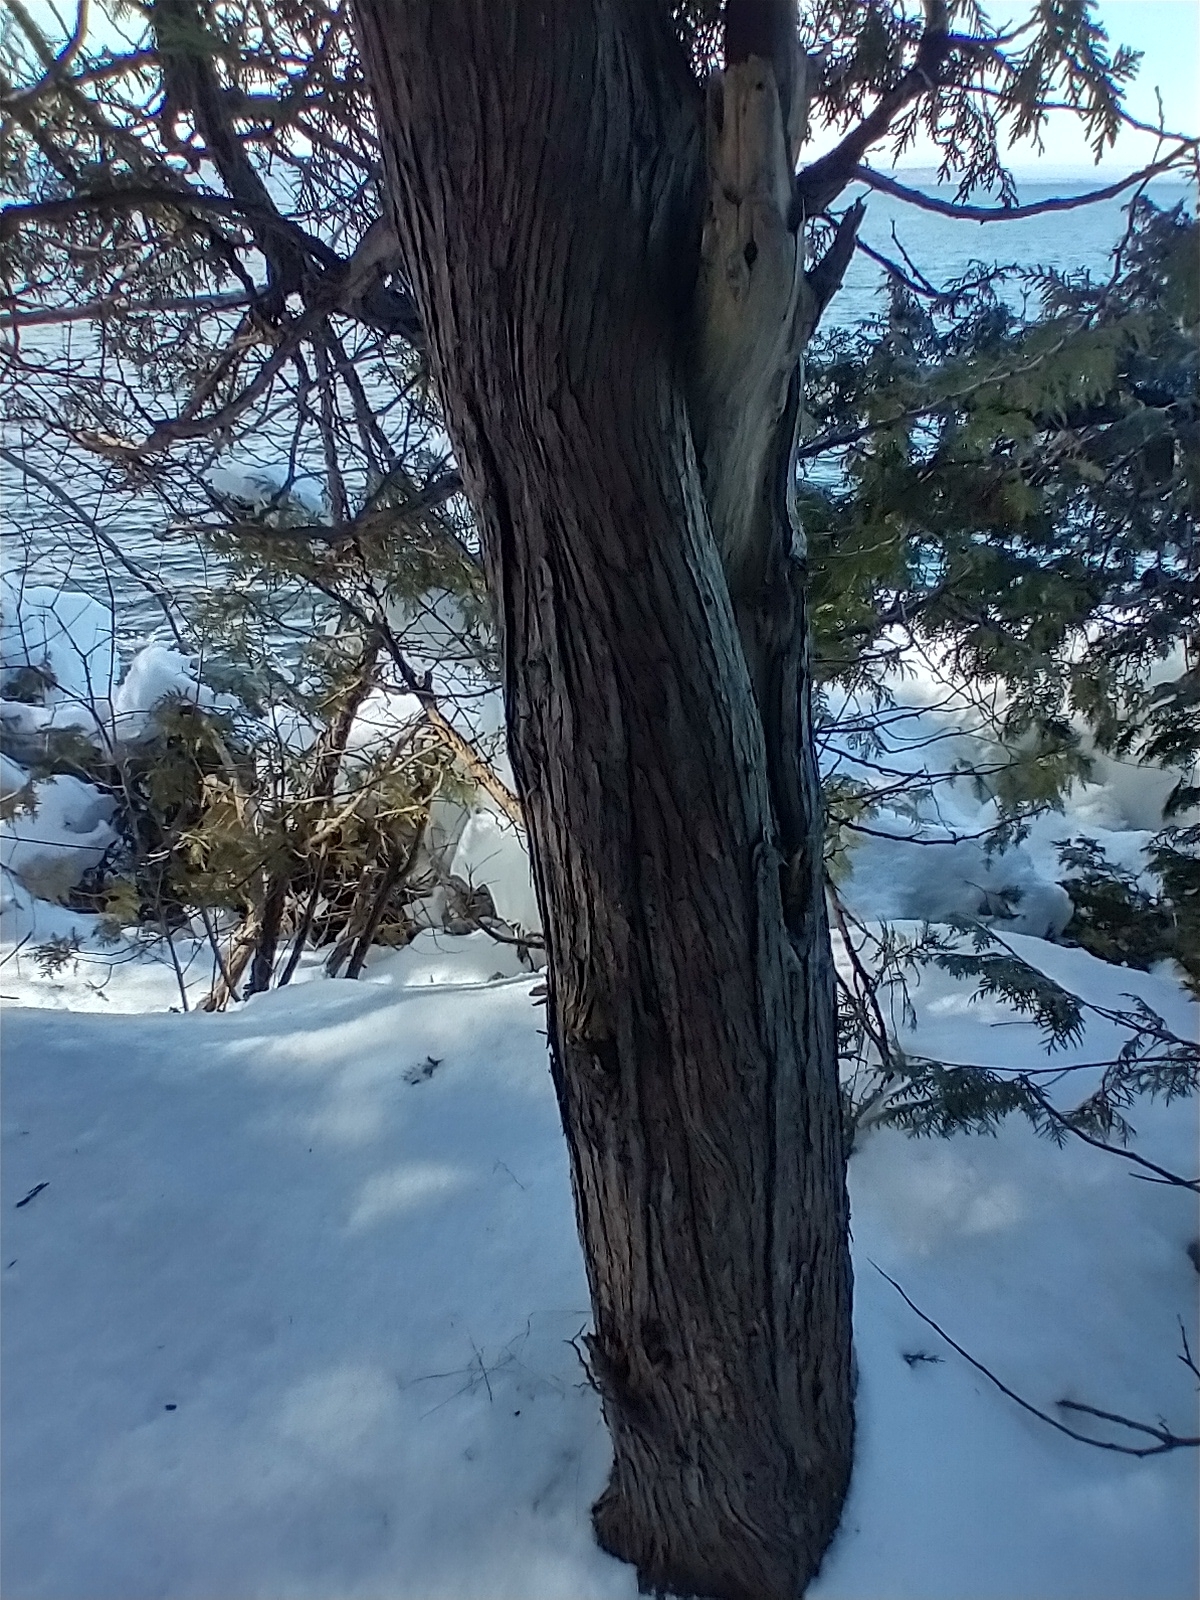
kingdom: Plantae
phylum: Tracheophyta
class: Pinopsida
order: Pinales
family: Cupressaceae
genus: Thuja
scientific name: Thuja occidentalis
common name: Northern white-cedar
